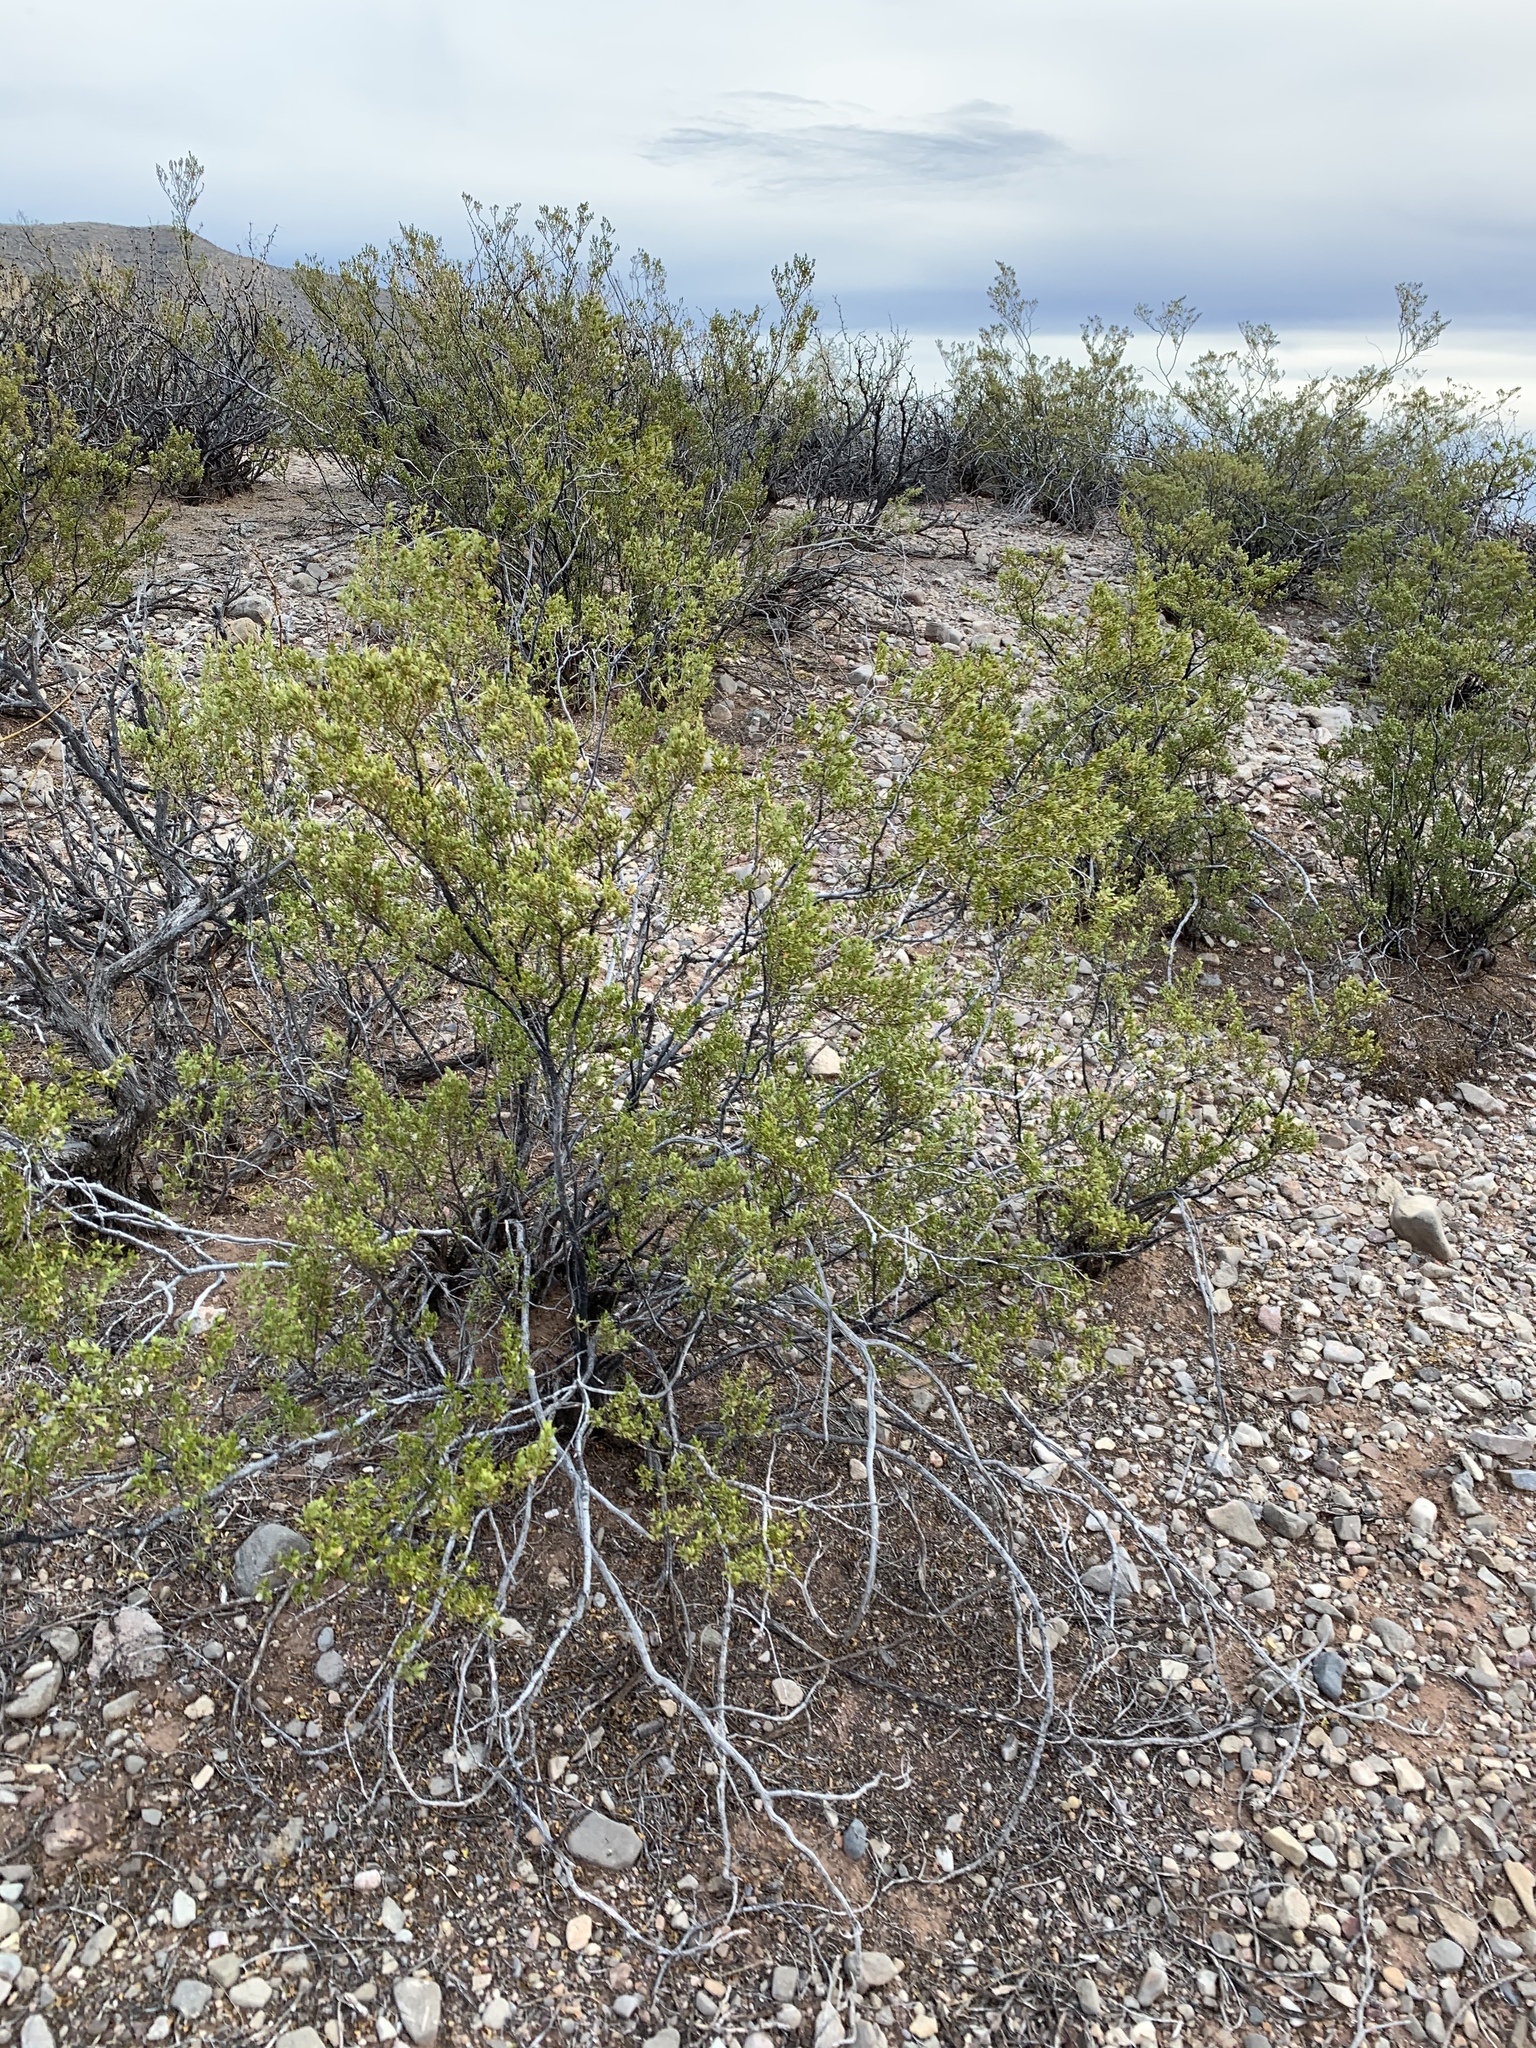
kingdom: Plantae
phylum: Tracheophyta
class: Magnoliopsida
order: Zygophyllales
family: Zygophyllaceae
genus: Larrea
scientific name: Larrea tridentata
